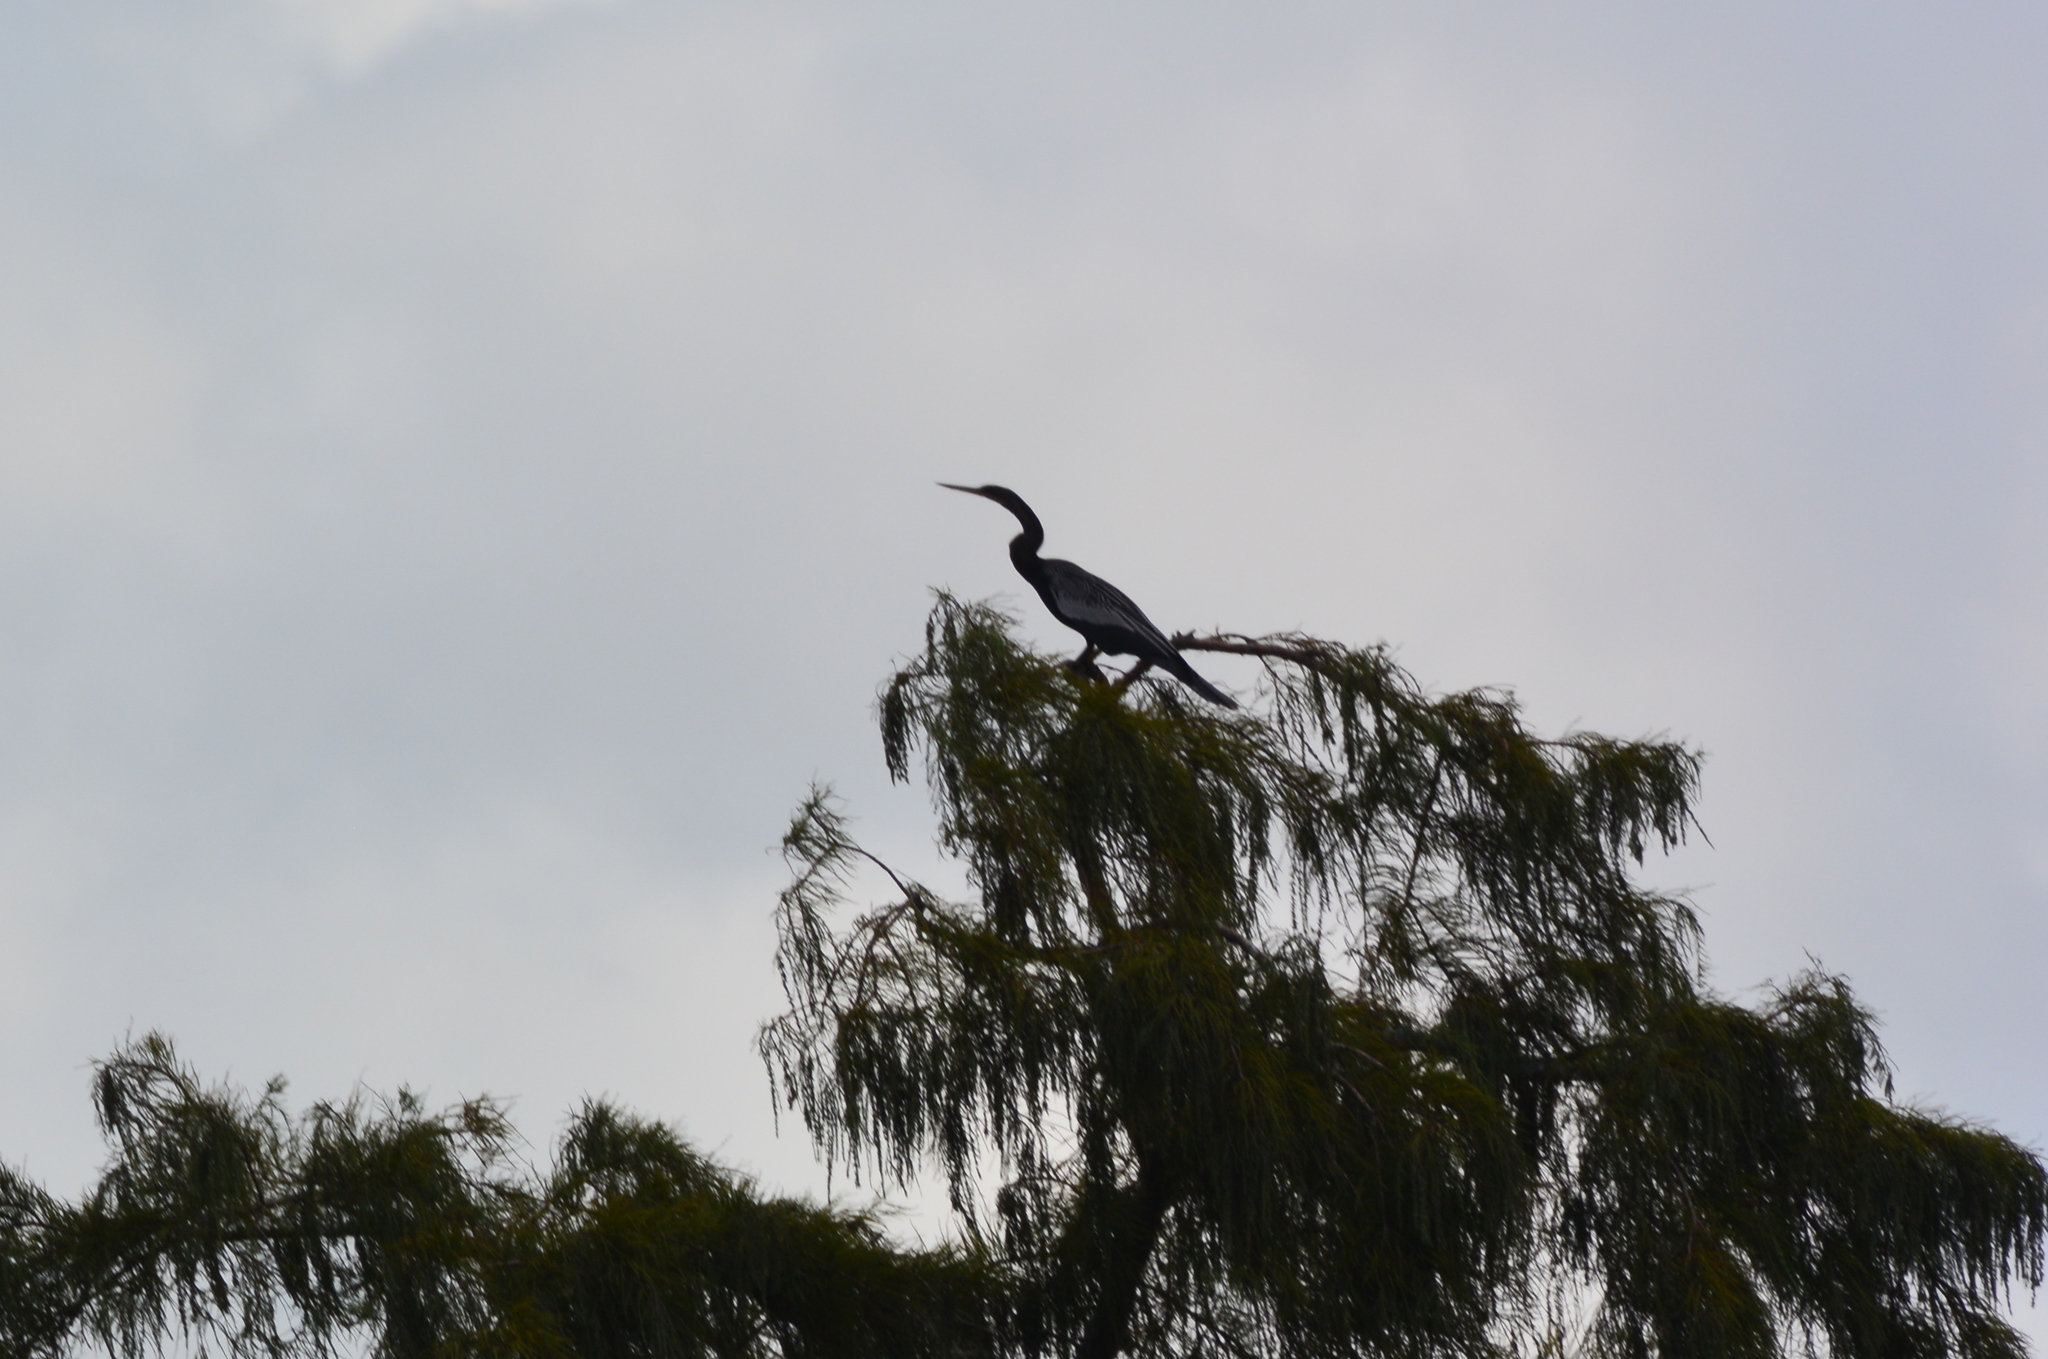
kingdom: Animalia
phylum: Chordata
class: Aves
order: Suliformes
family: Anhingidae
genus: Anhinga
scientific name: Anhinga anhinga
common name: Anhinga
